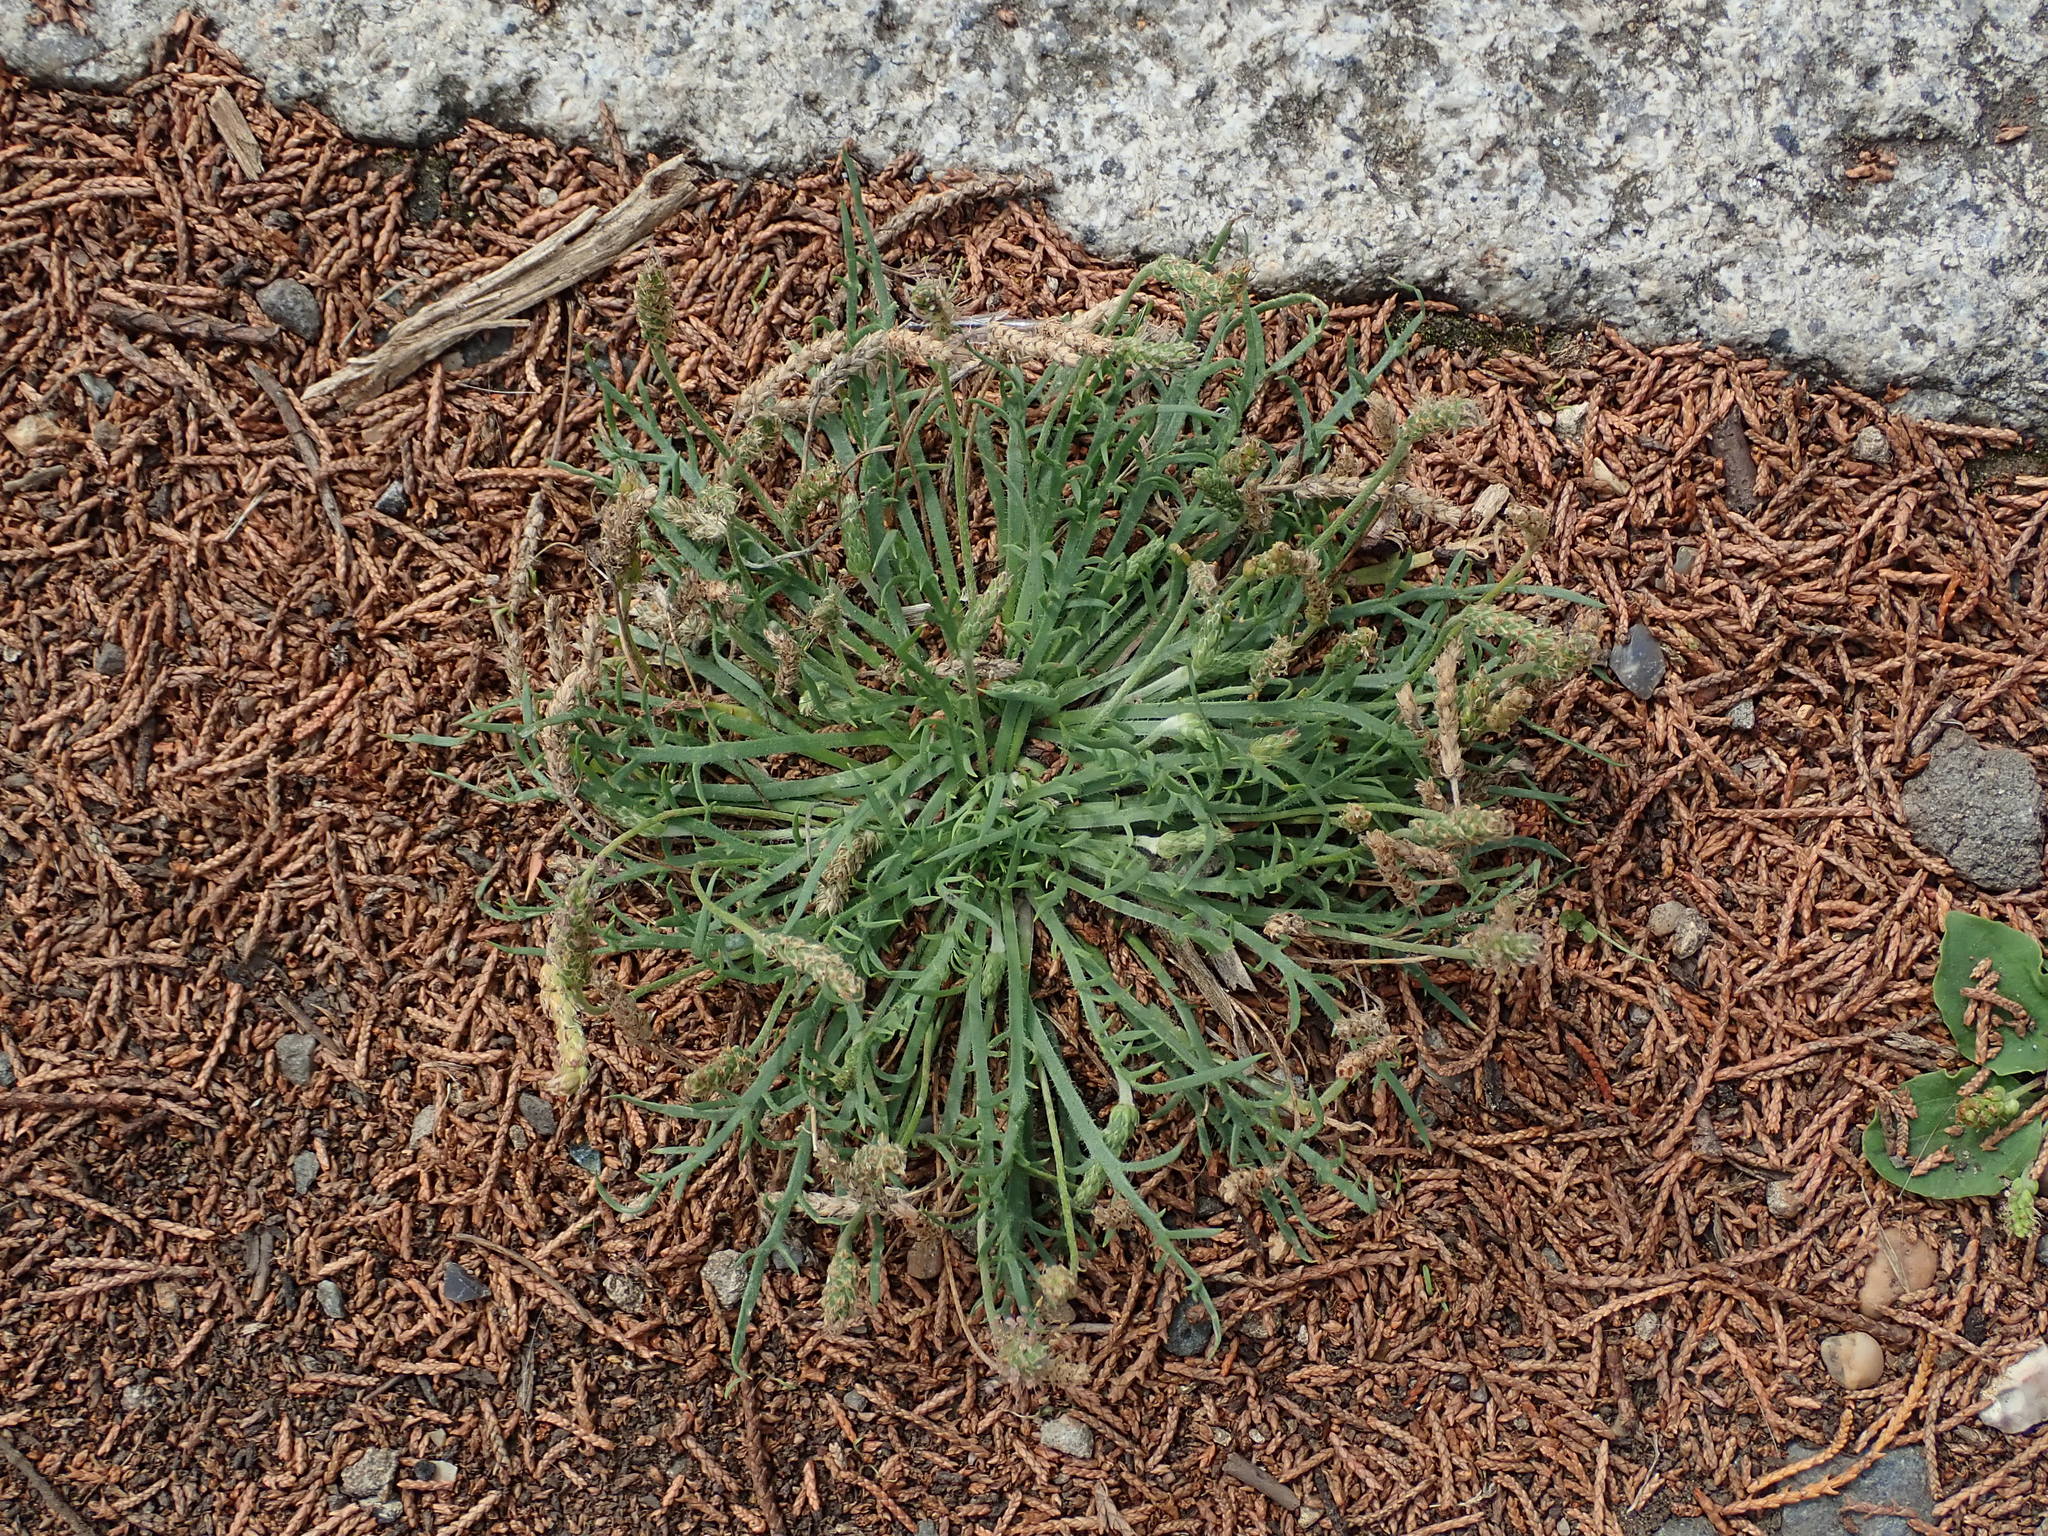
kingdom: Plantae
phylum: Tracheophyta
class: Magnoliopsida
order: Lamiales
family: Plantaginaceae
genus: Plantago
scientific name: Plantago coronopus
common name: Buck's-horn plantain
